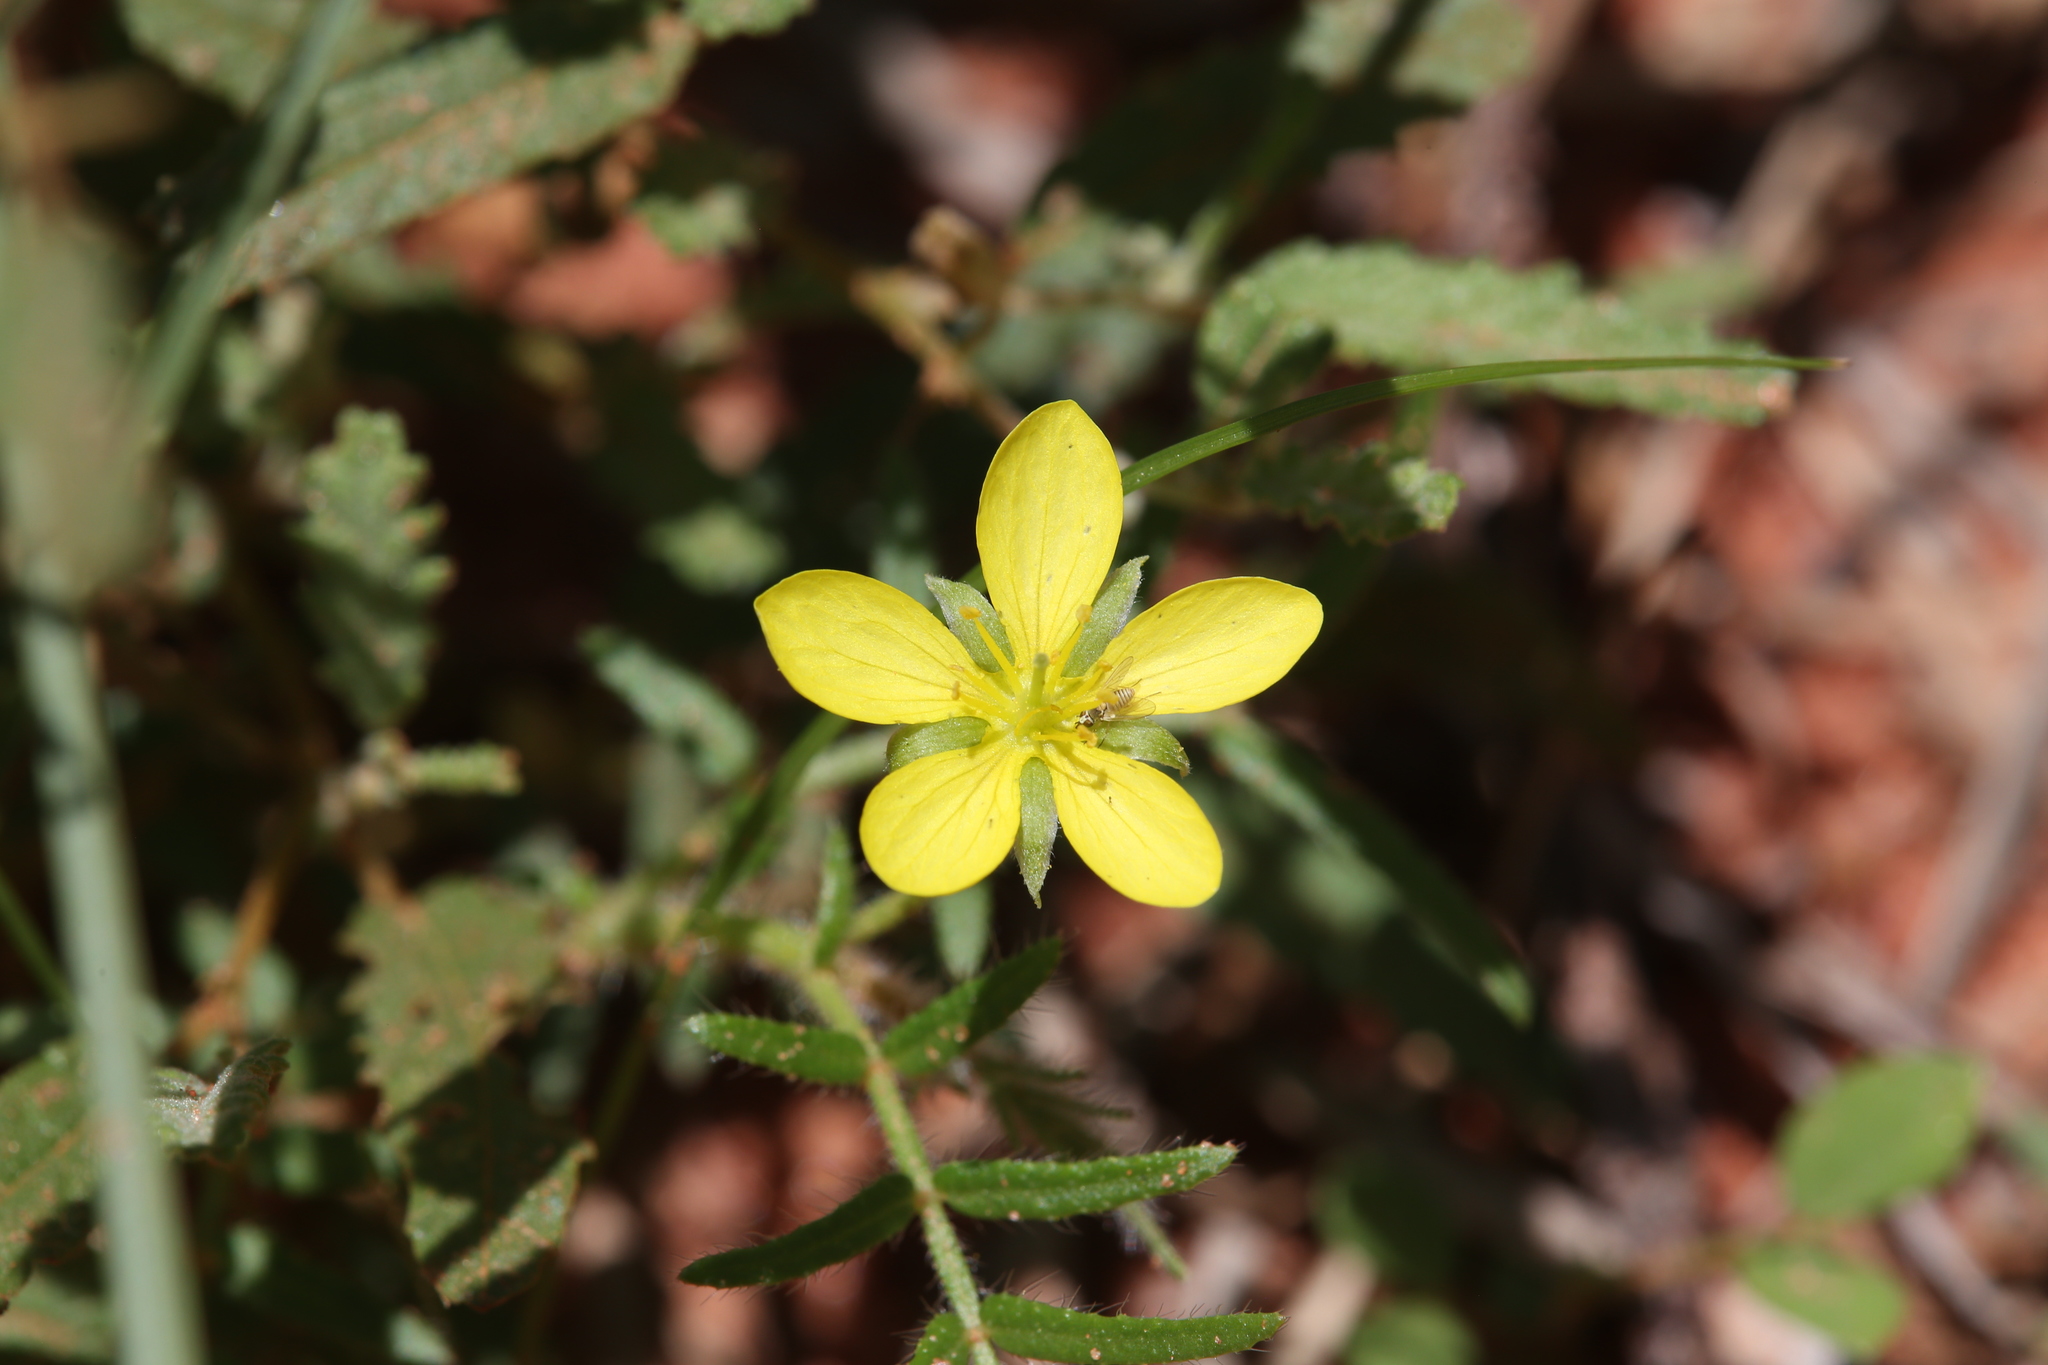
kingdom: Plantae
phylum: Tracheophyta
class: Magnoliopsida
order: Zygophyllales
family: Zygophyllaceae
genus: Tribulopis
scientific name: Tribulopis angustifolia
